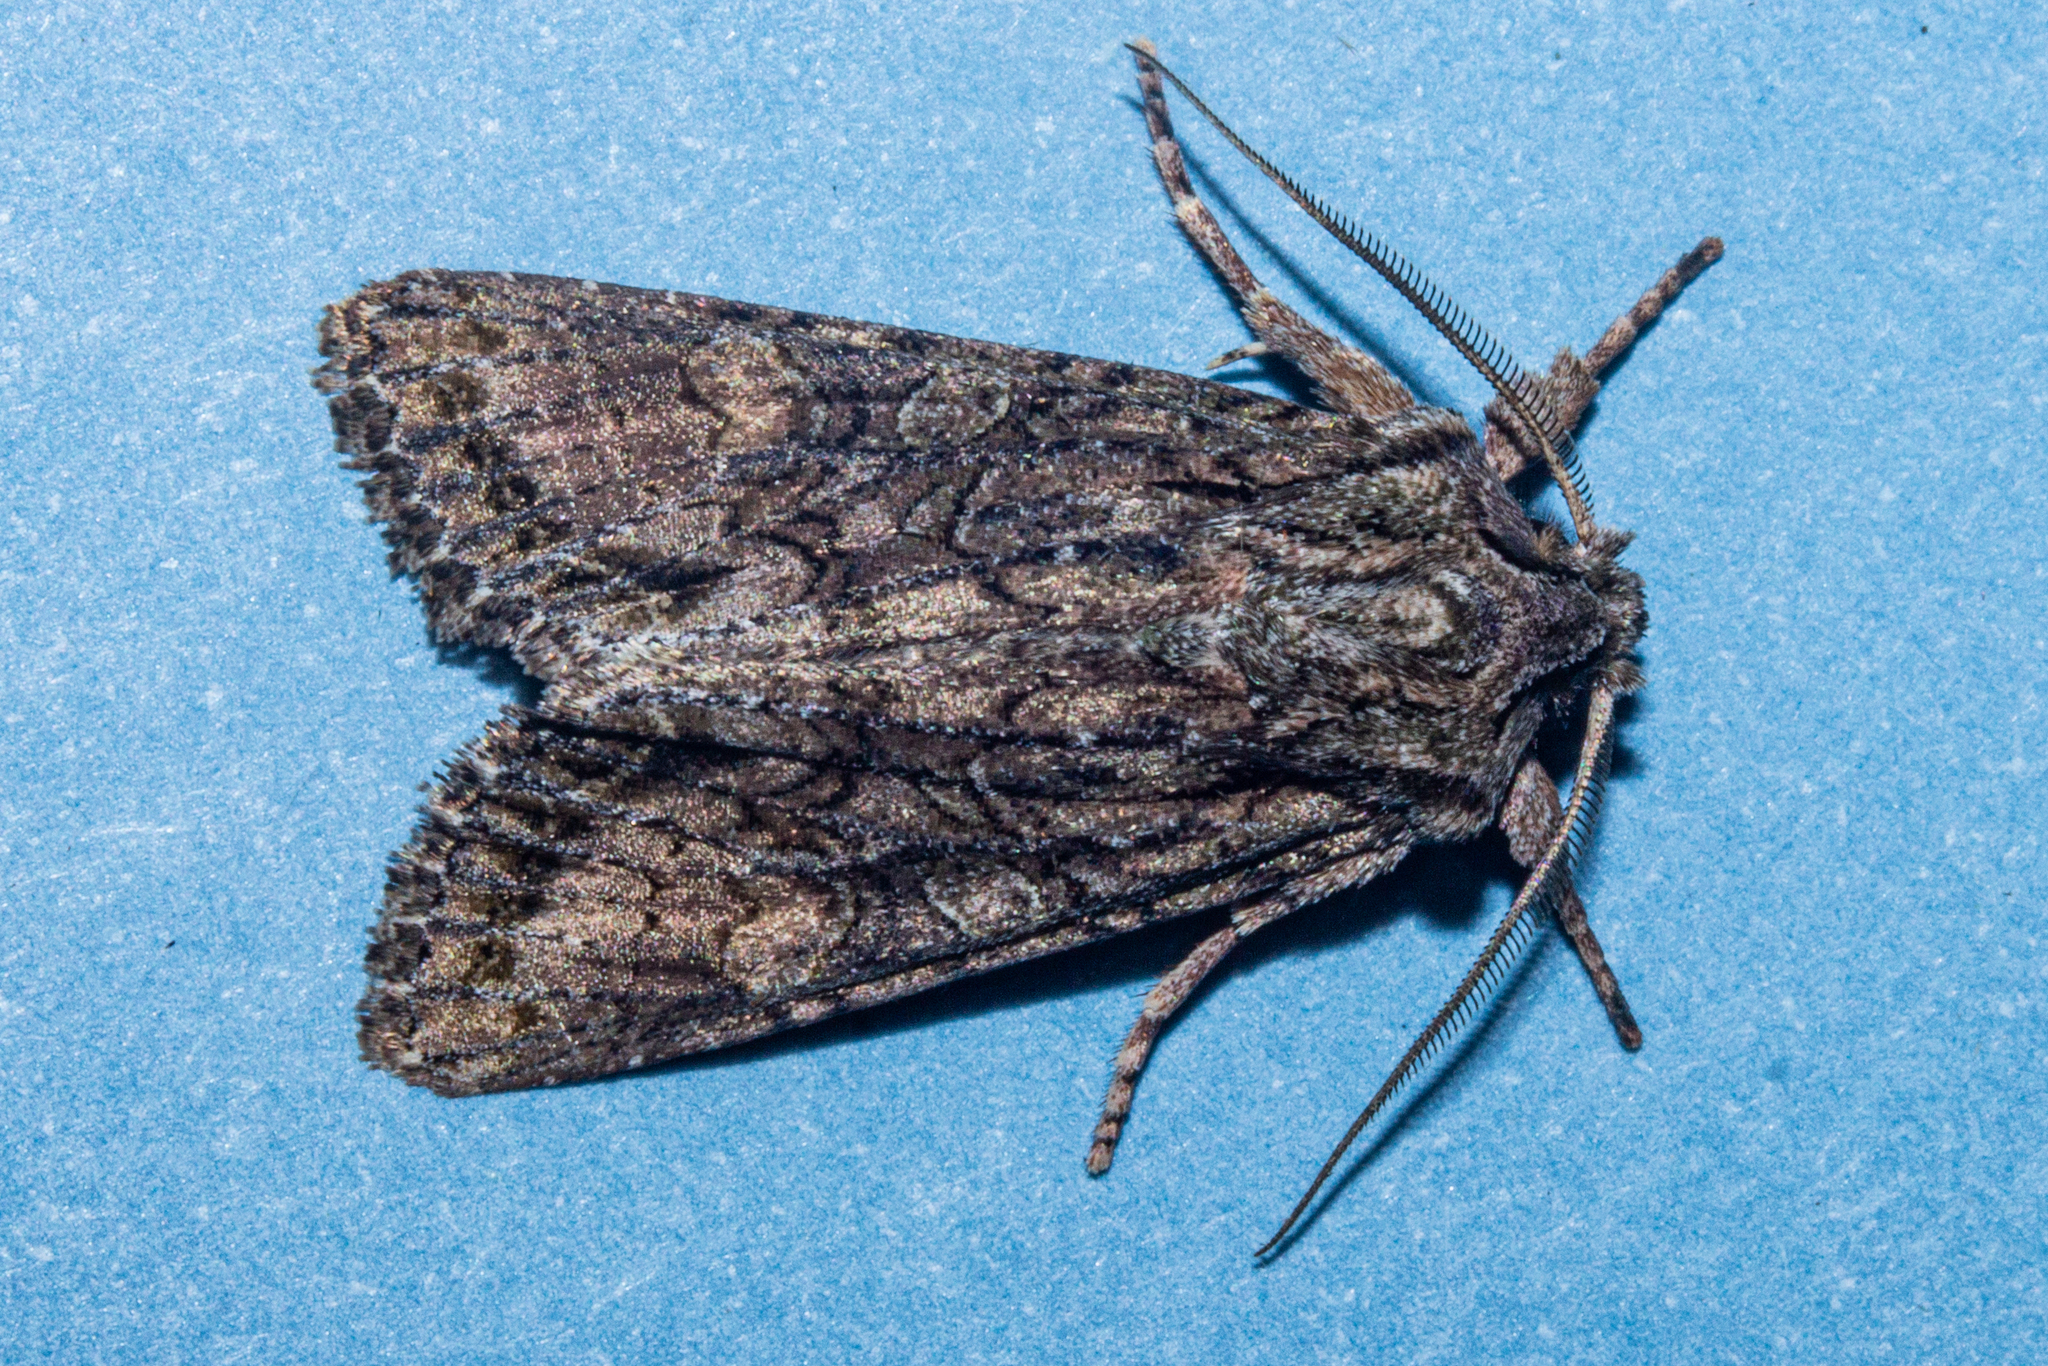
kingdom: Animalia
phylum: Arthropoda
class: Insecta
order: Lepidoptera
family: Noctuidae
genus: Ichneutica
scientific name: Ichneutica mutans
